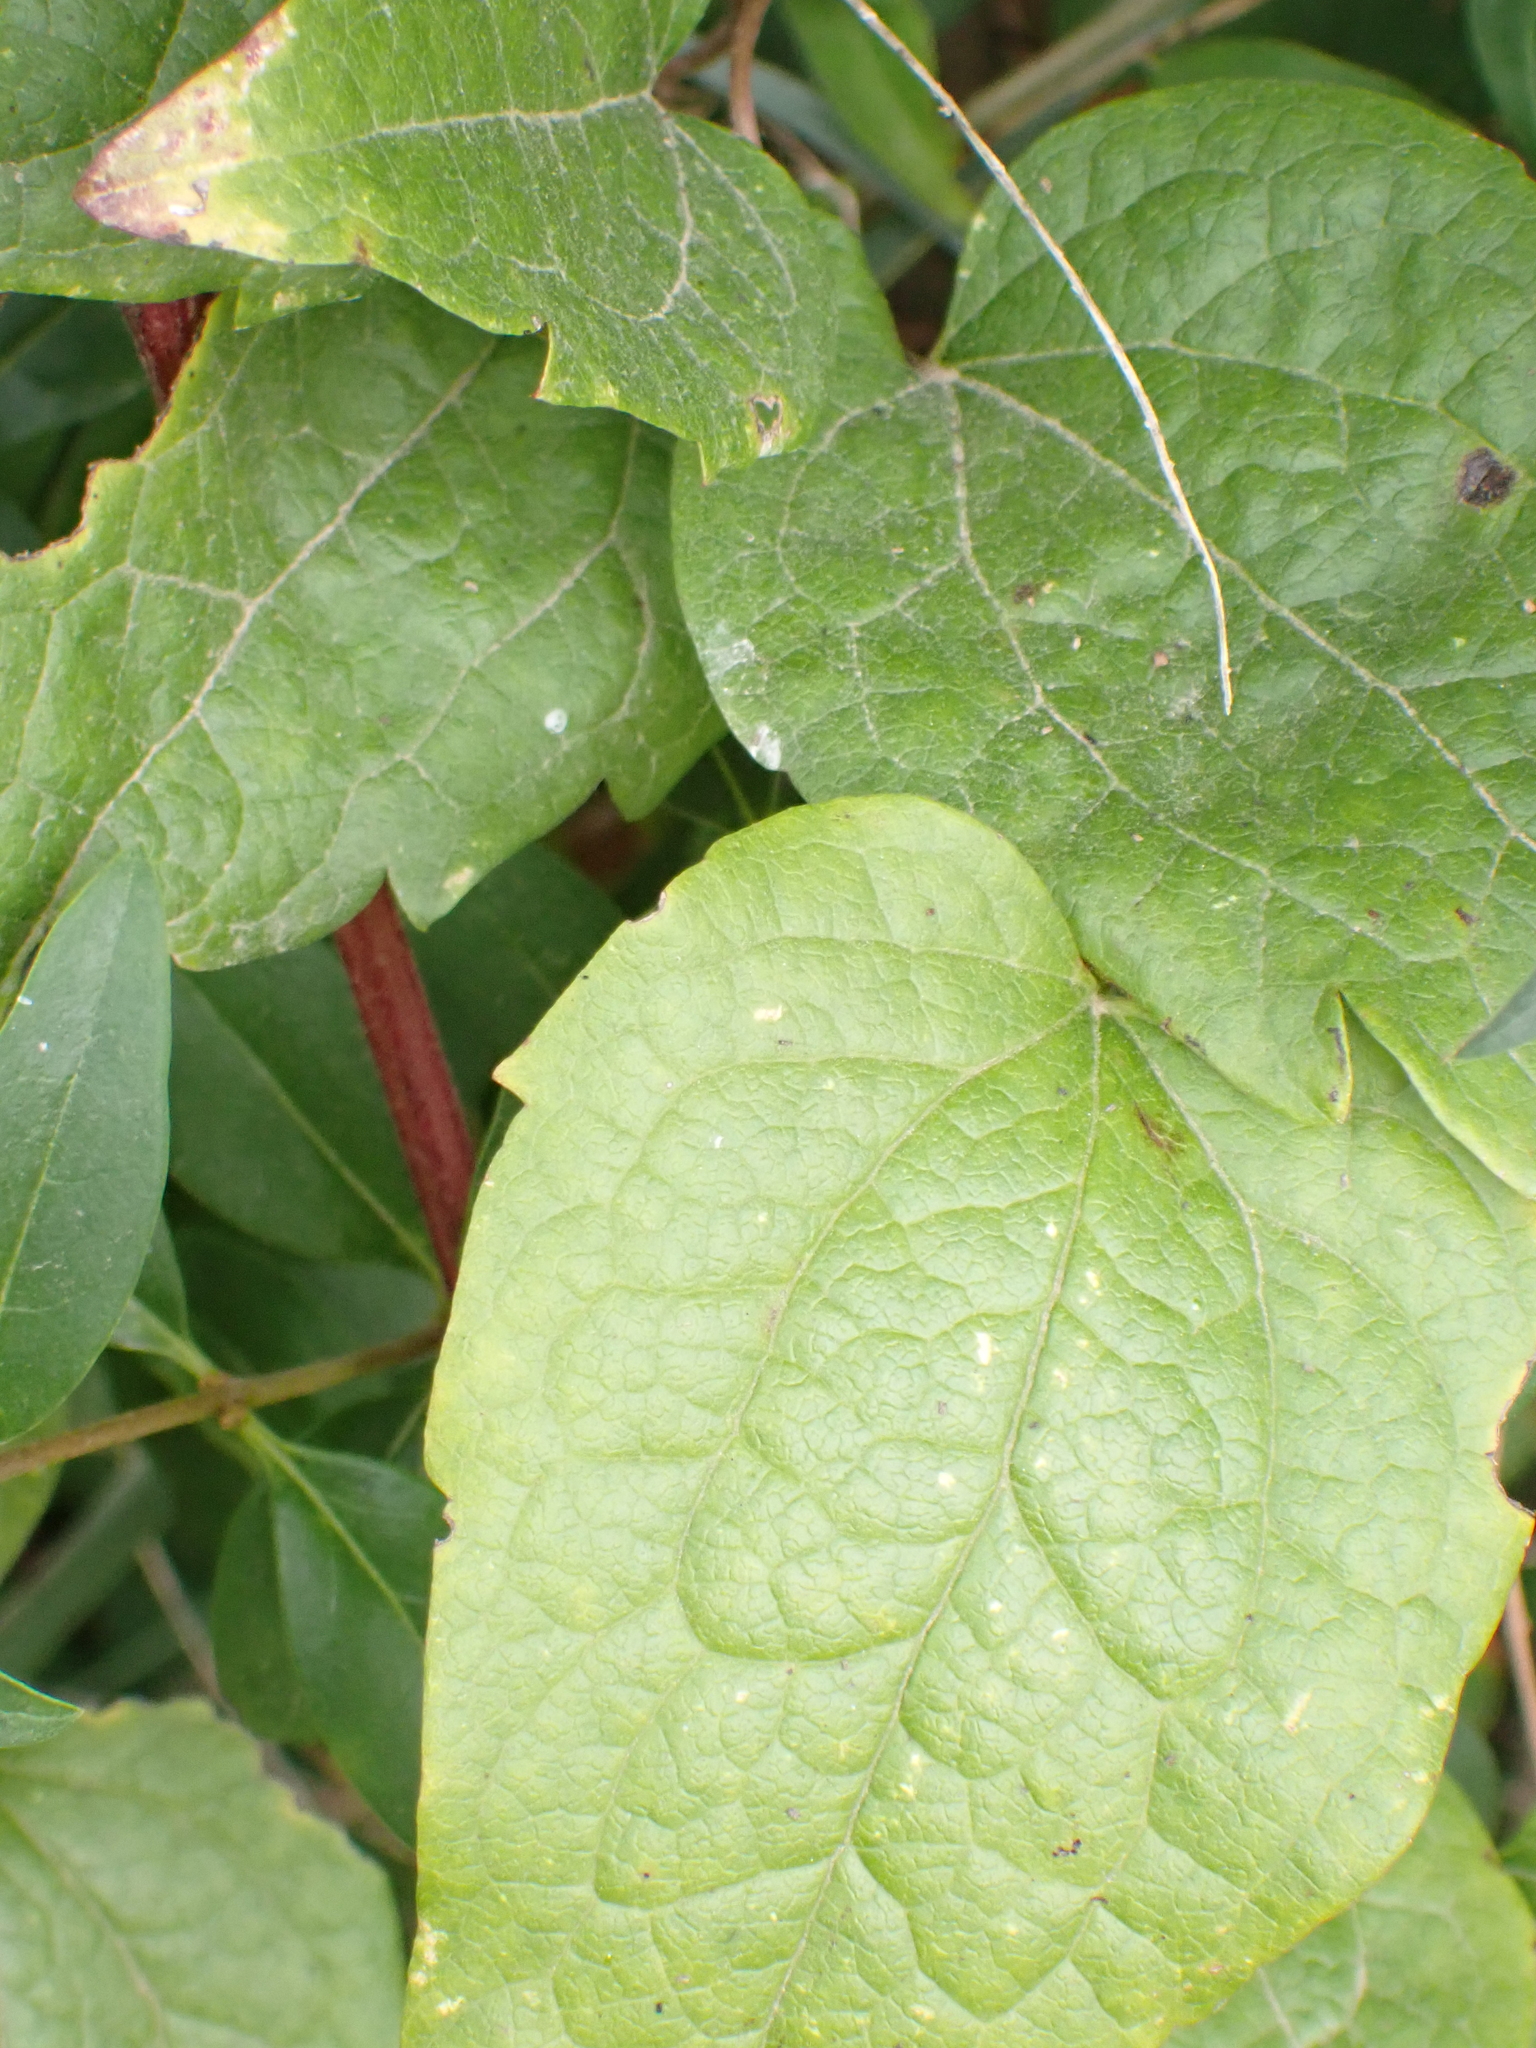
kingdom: Plantae
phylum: Tracheophyta
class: Magnoliopsida
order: Ranunculales
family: Ranunculaceae
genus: Clematis
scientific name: Clematis vitalba
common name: Evergreen clematis
